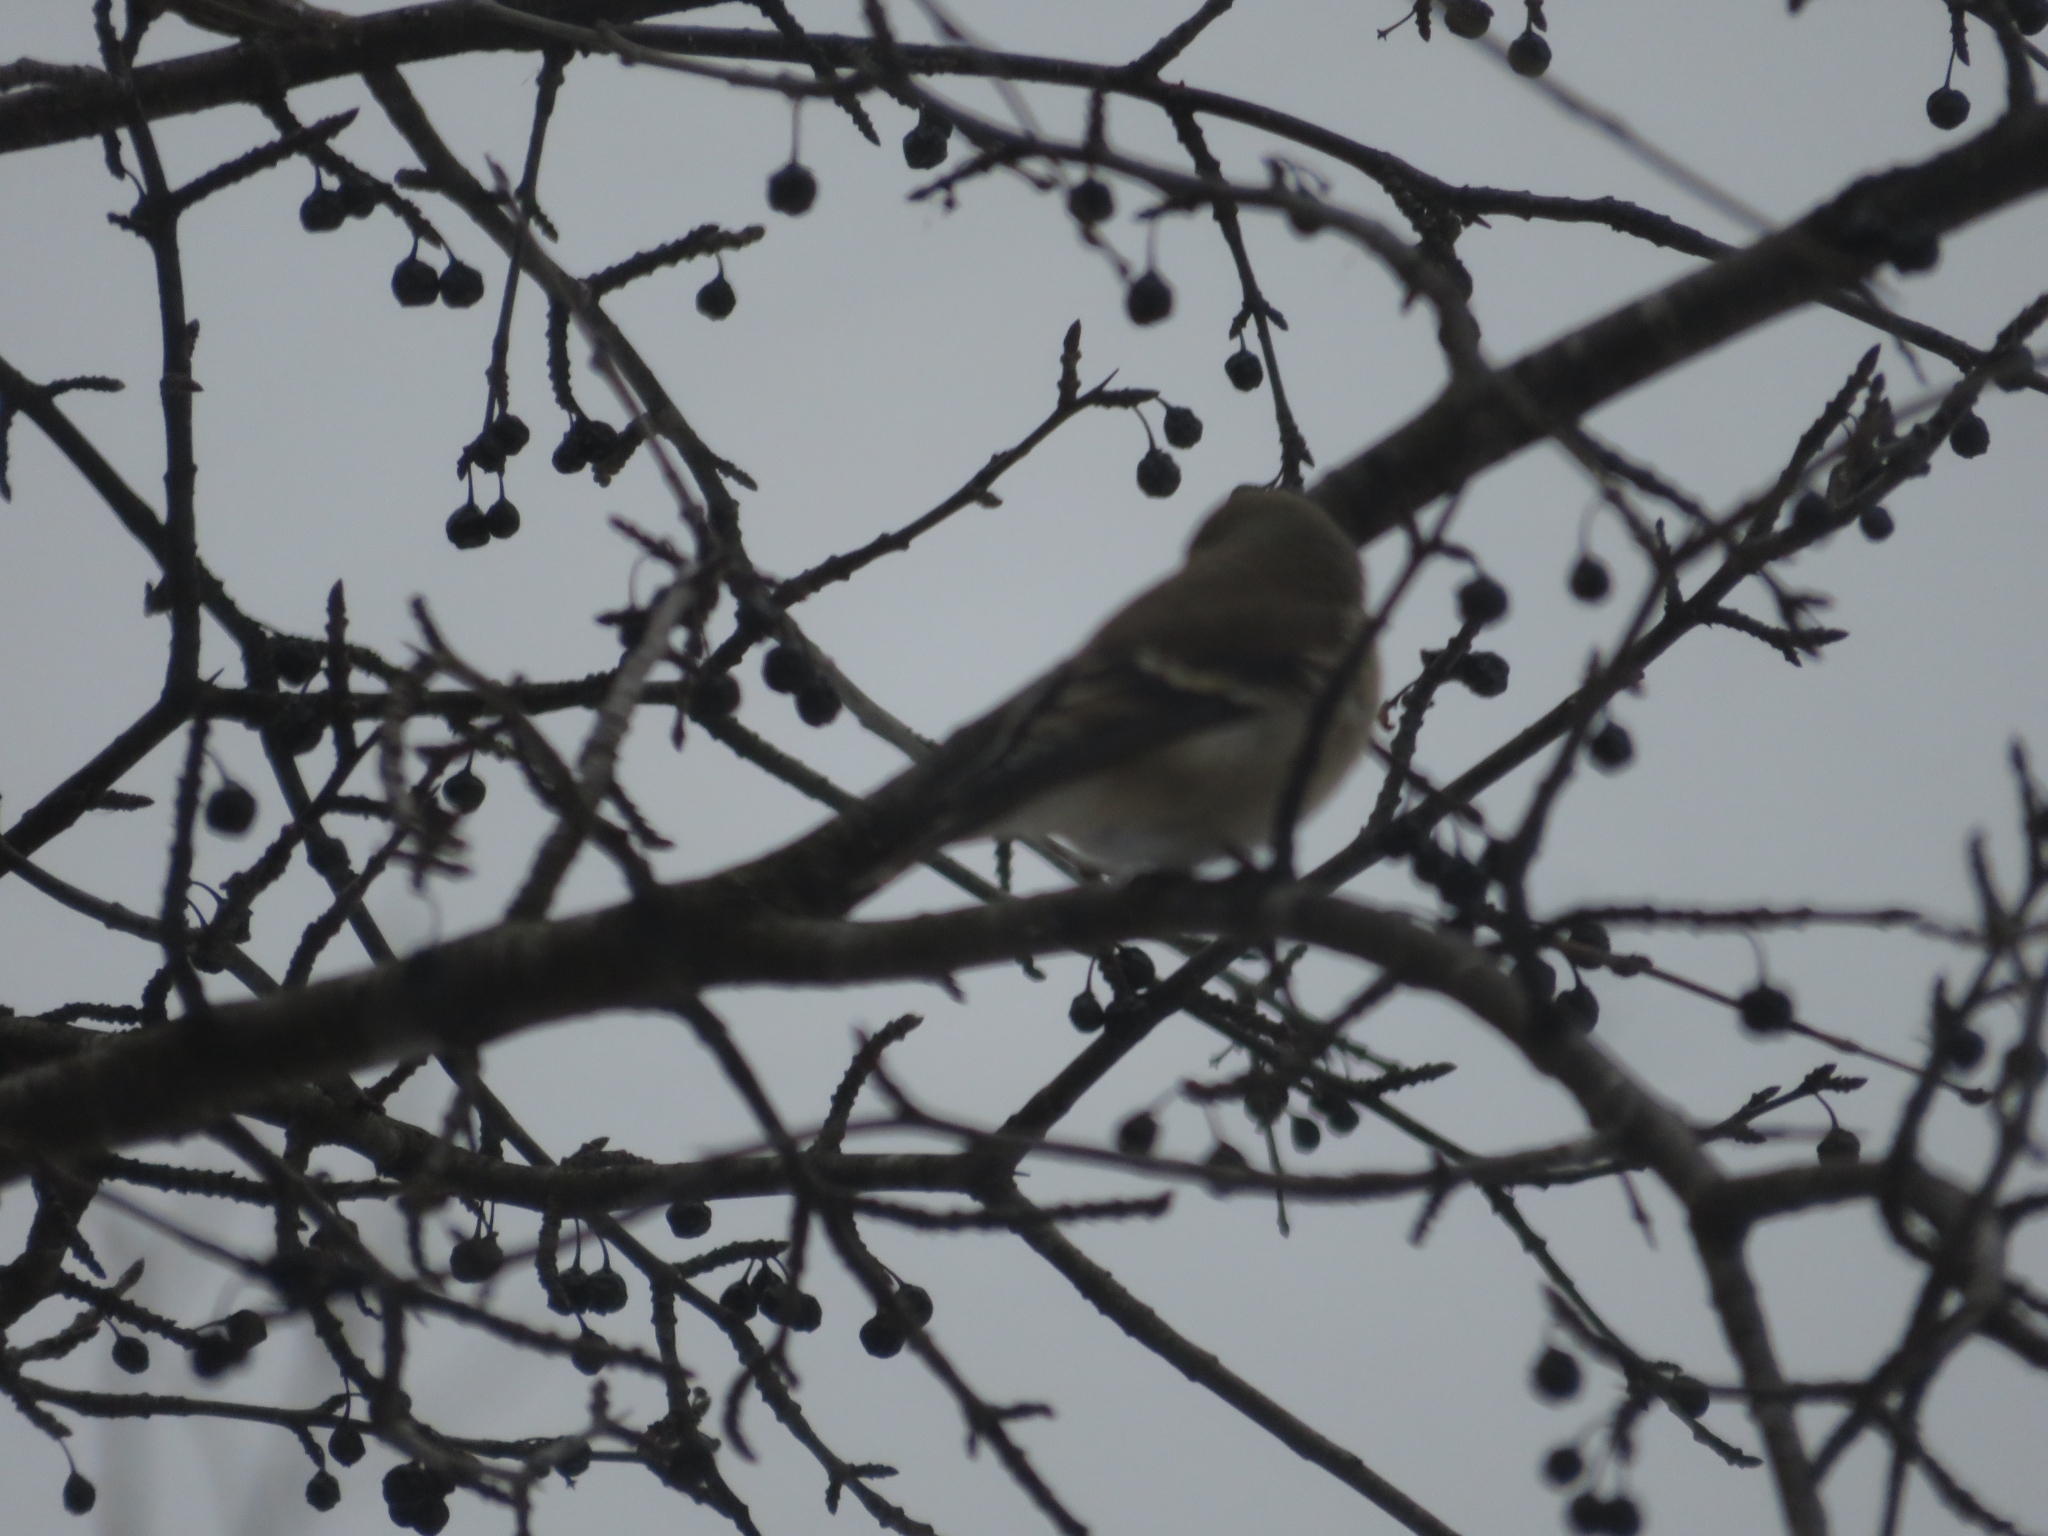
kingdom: Animalia
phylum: Chordata
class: Aves
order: Passeriformes
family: Fringillidae
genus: Spinus
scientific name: Spinus tristis
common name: American goldfinch
